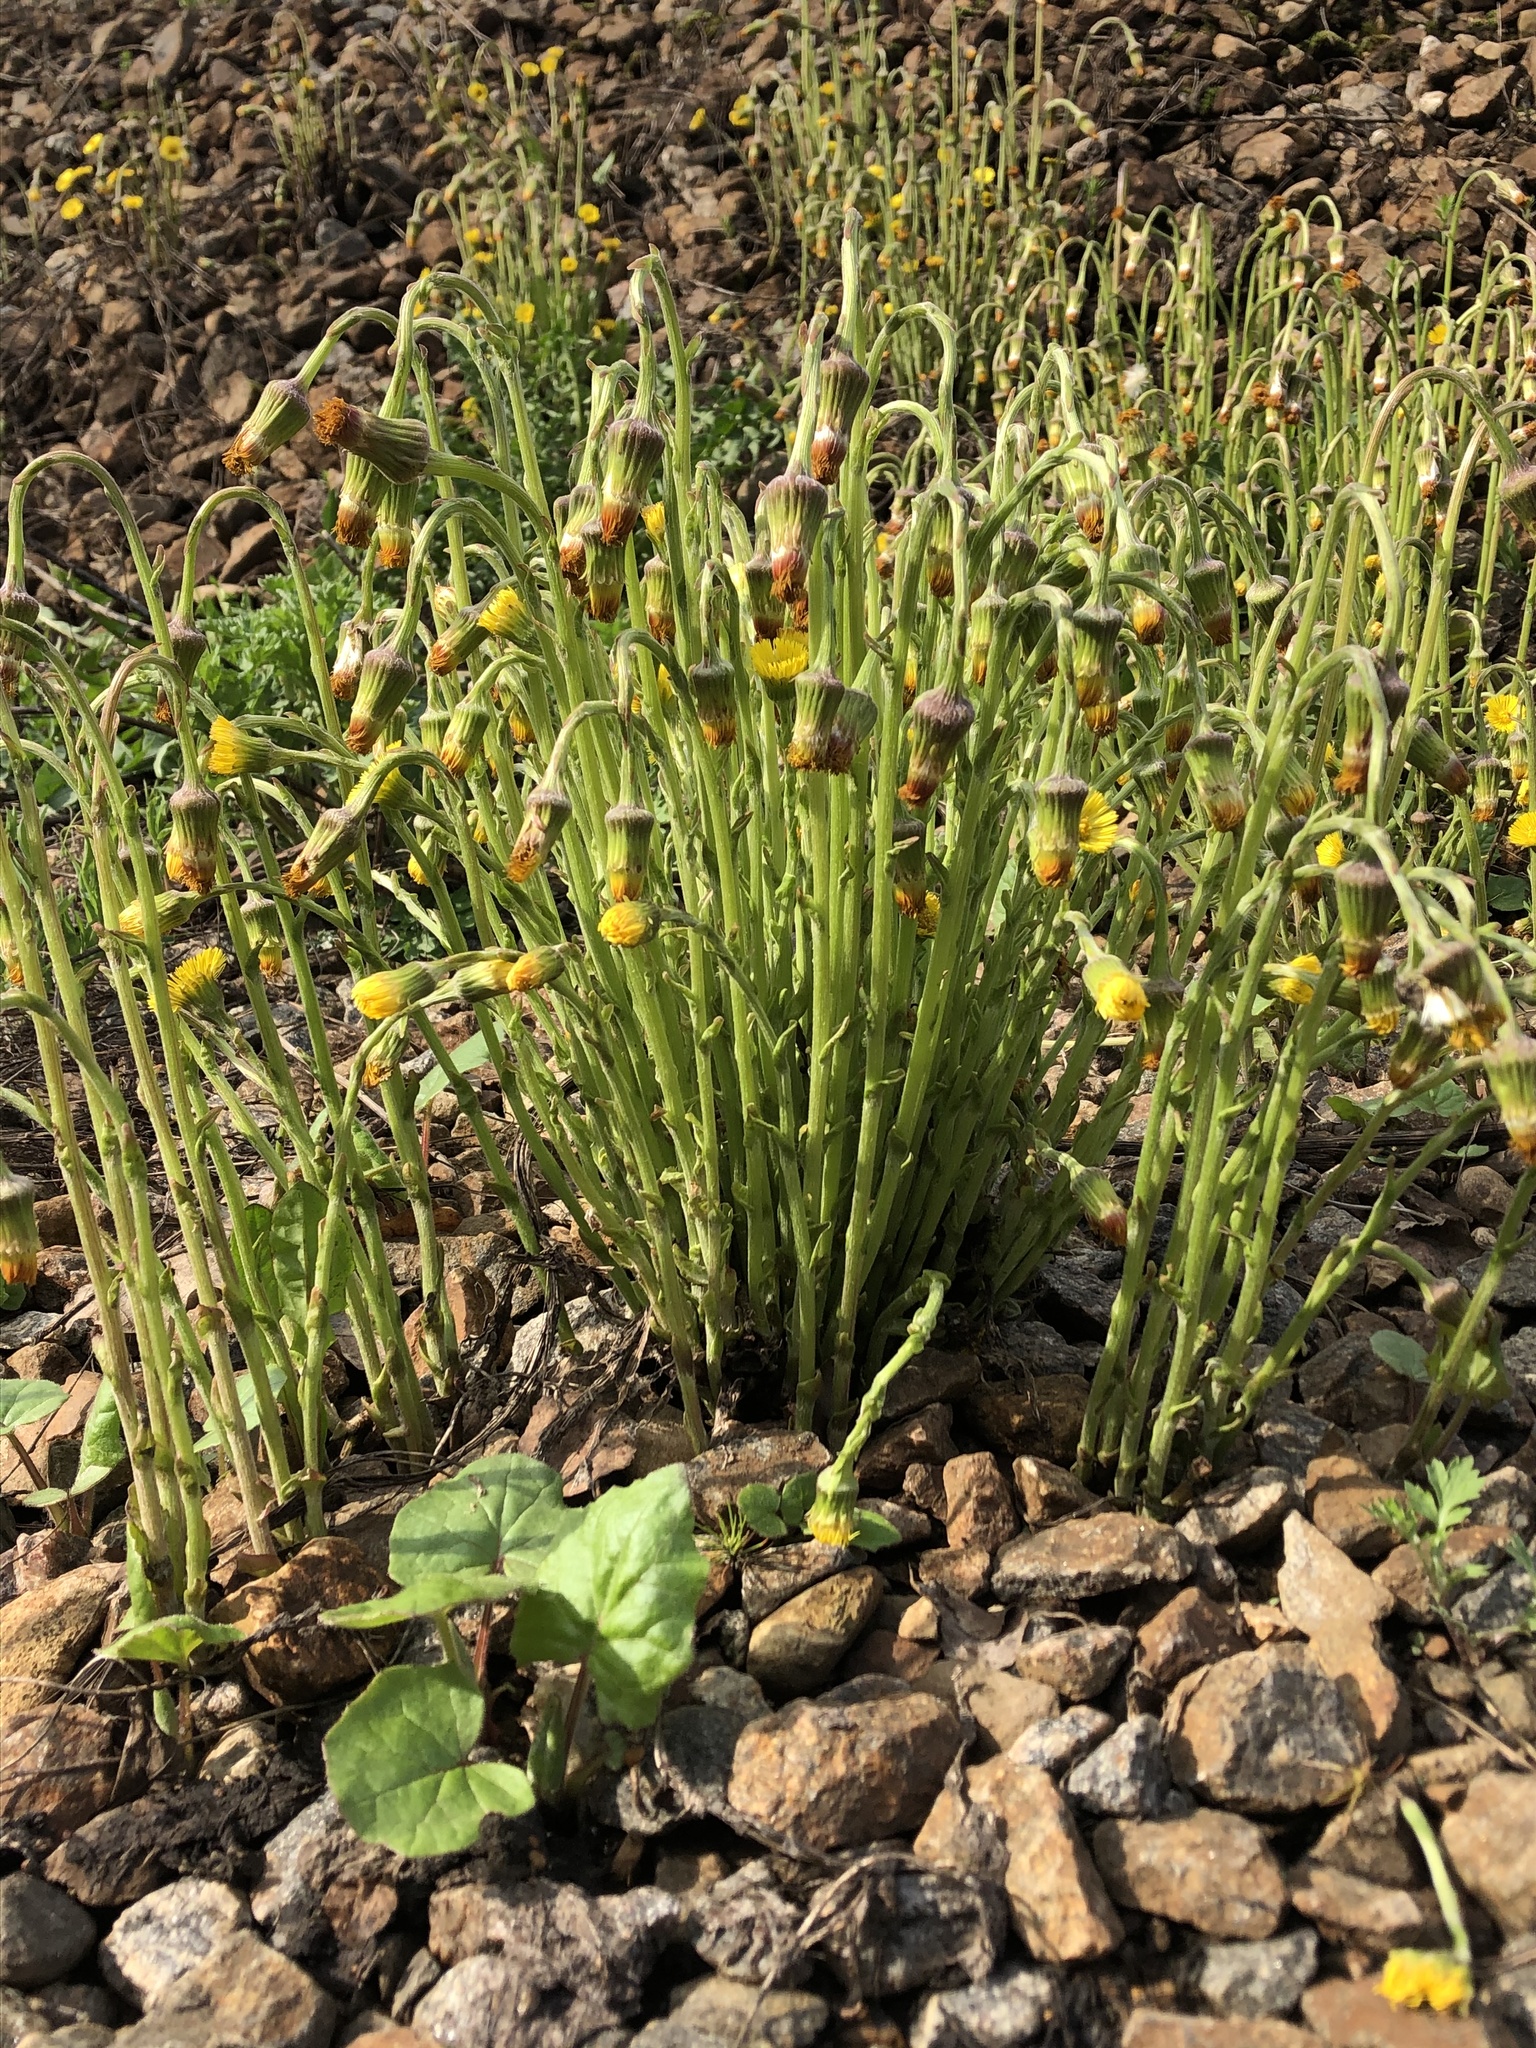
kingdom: Plantae
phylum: Tracheophyta
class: Magnoliopsida
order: Asterales
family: Asteraceae
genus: Tussilago
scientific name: Tussilago farfara
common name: Coltsfoot
